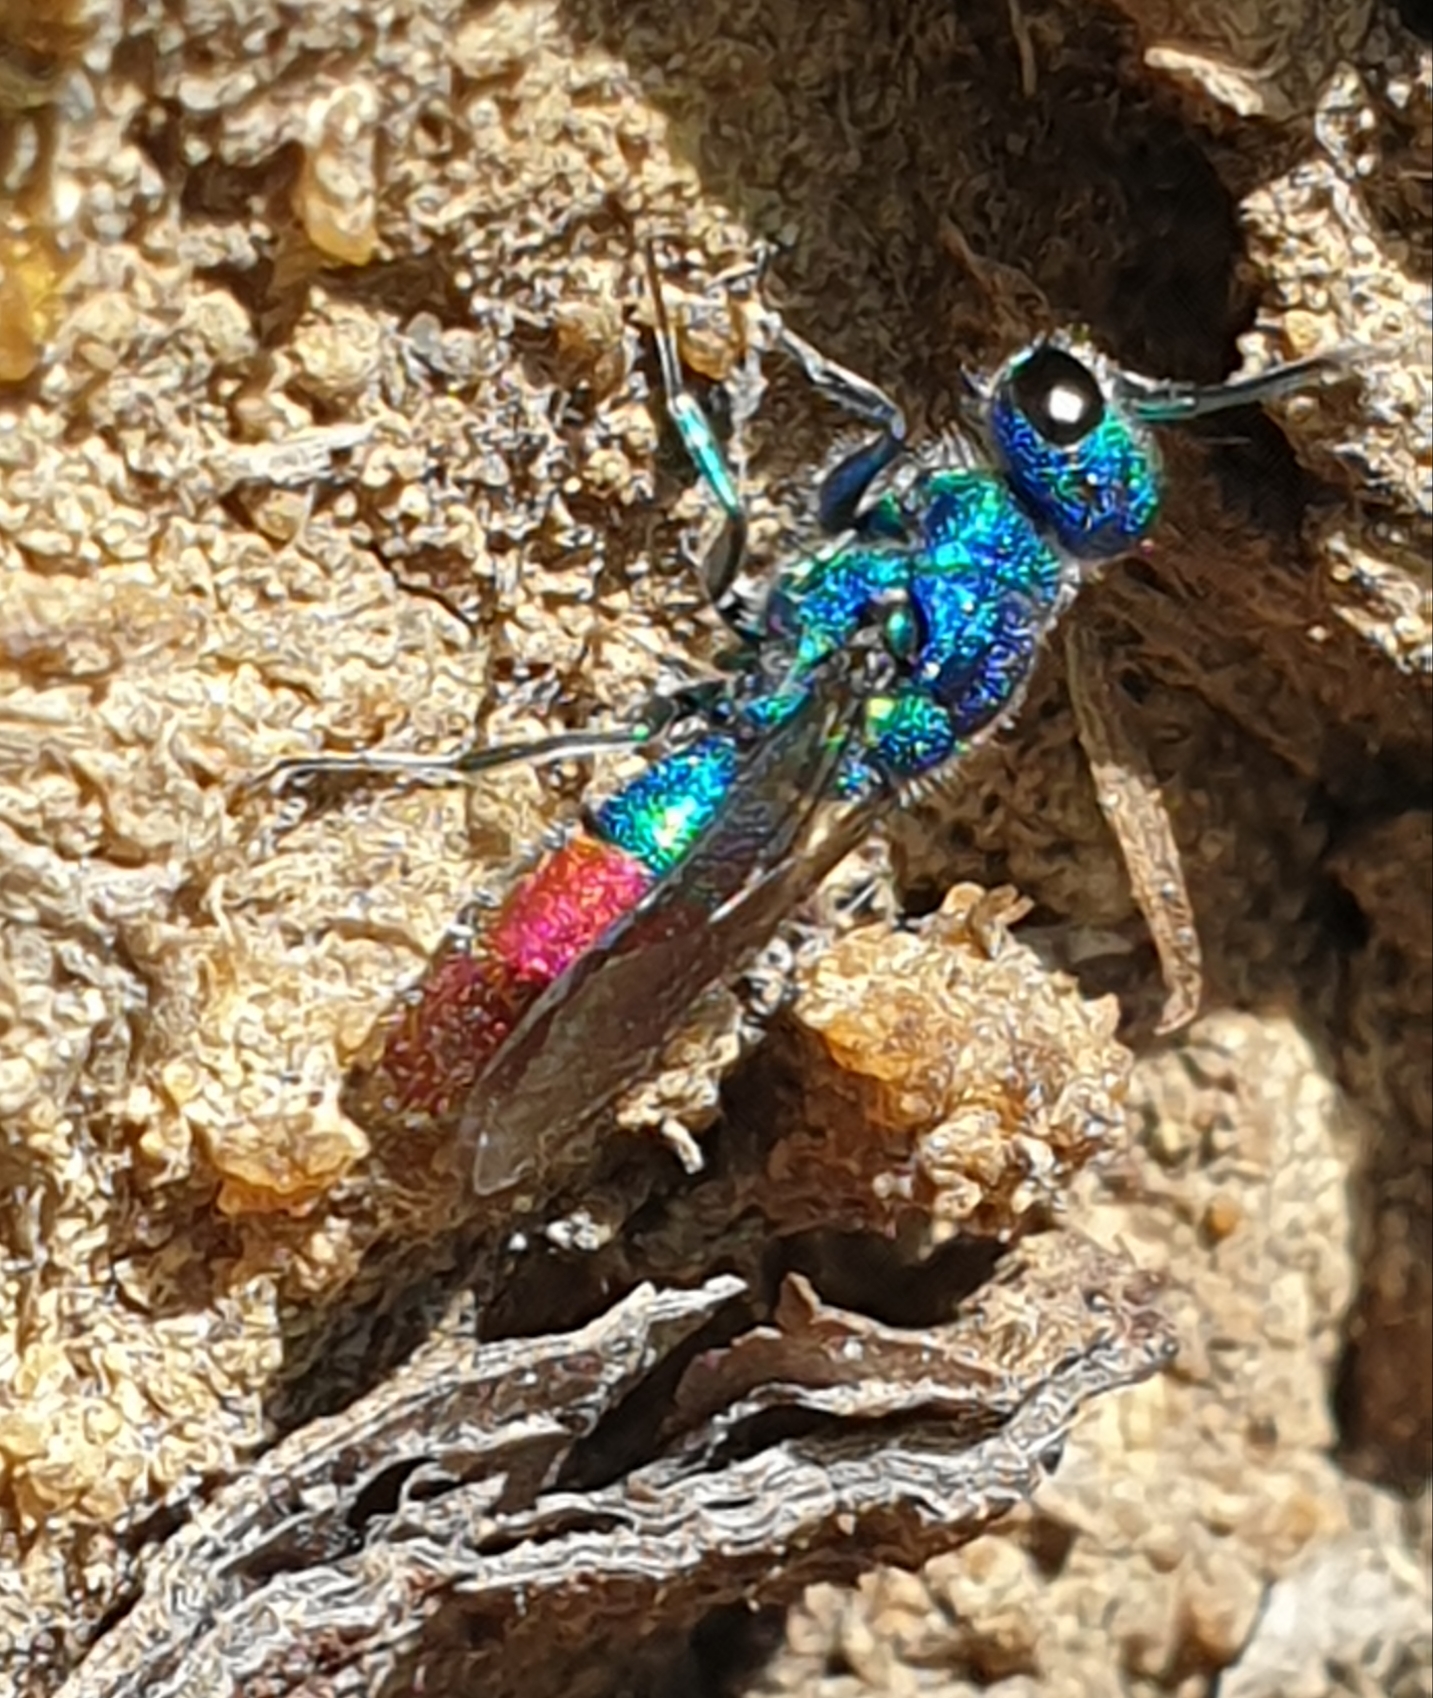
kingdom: Animalia
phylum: Arthropoda
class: Insecta
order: Hymenoptera
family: Chrysididae
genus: Chrysis
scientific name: Chrysis fulgida
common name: Shimmering ruby-tail
